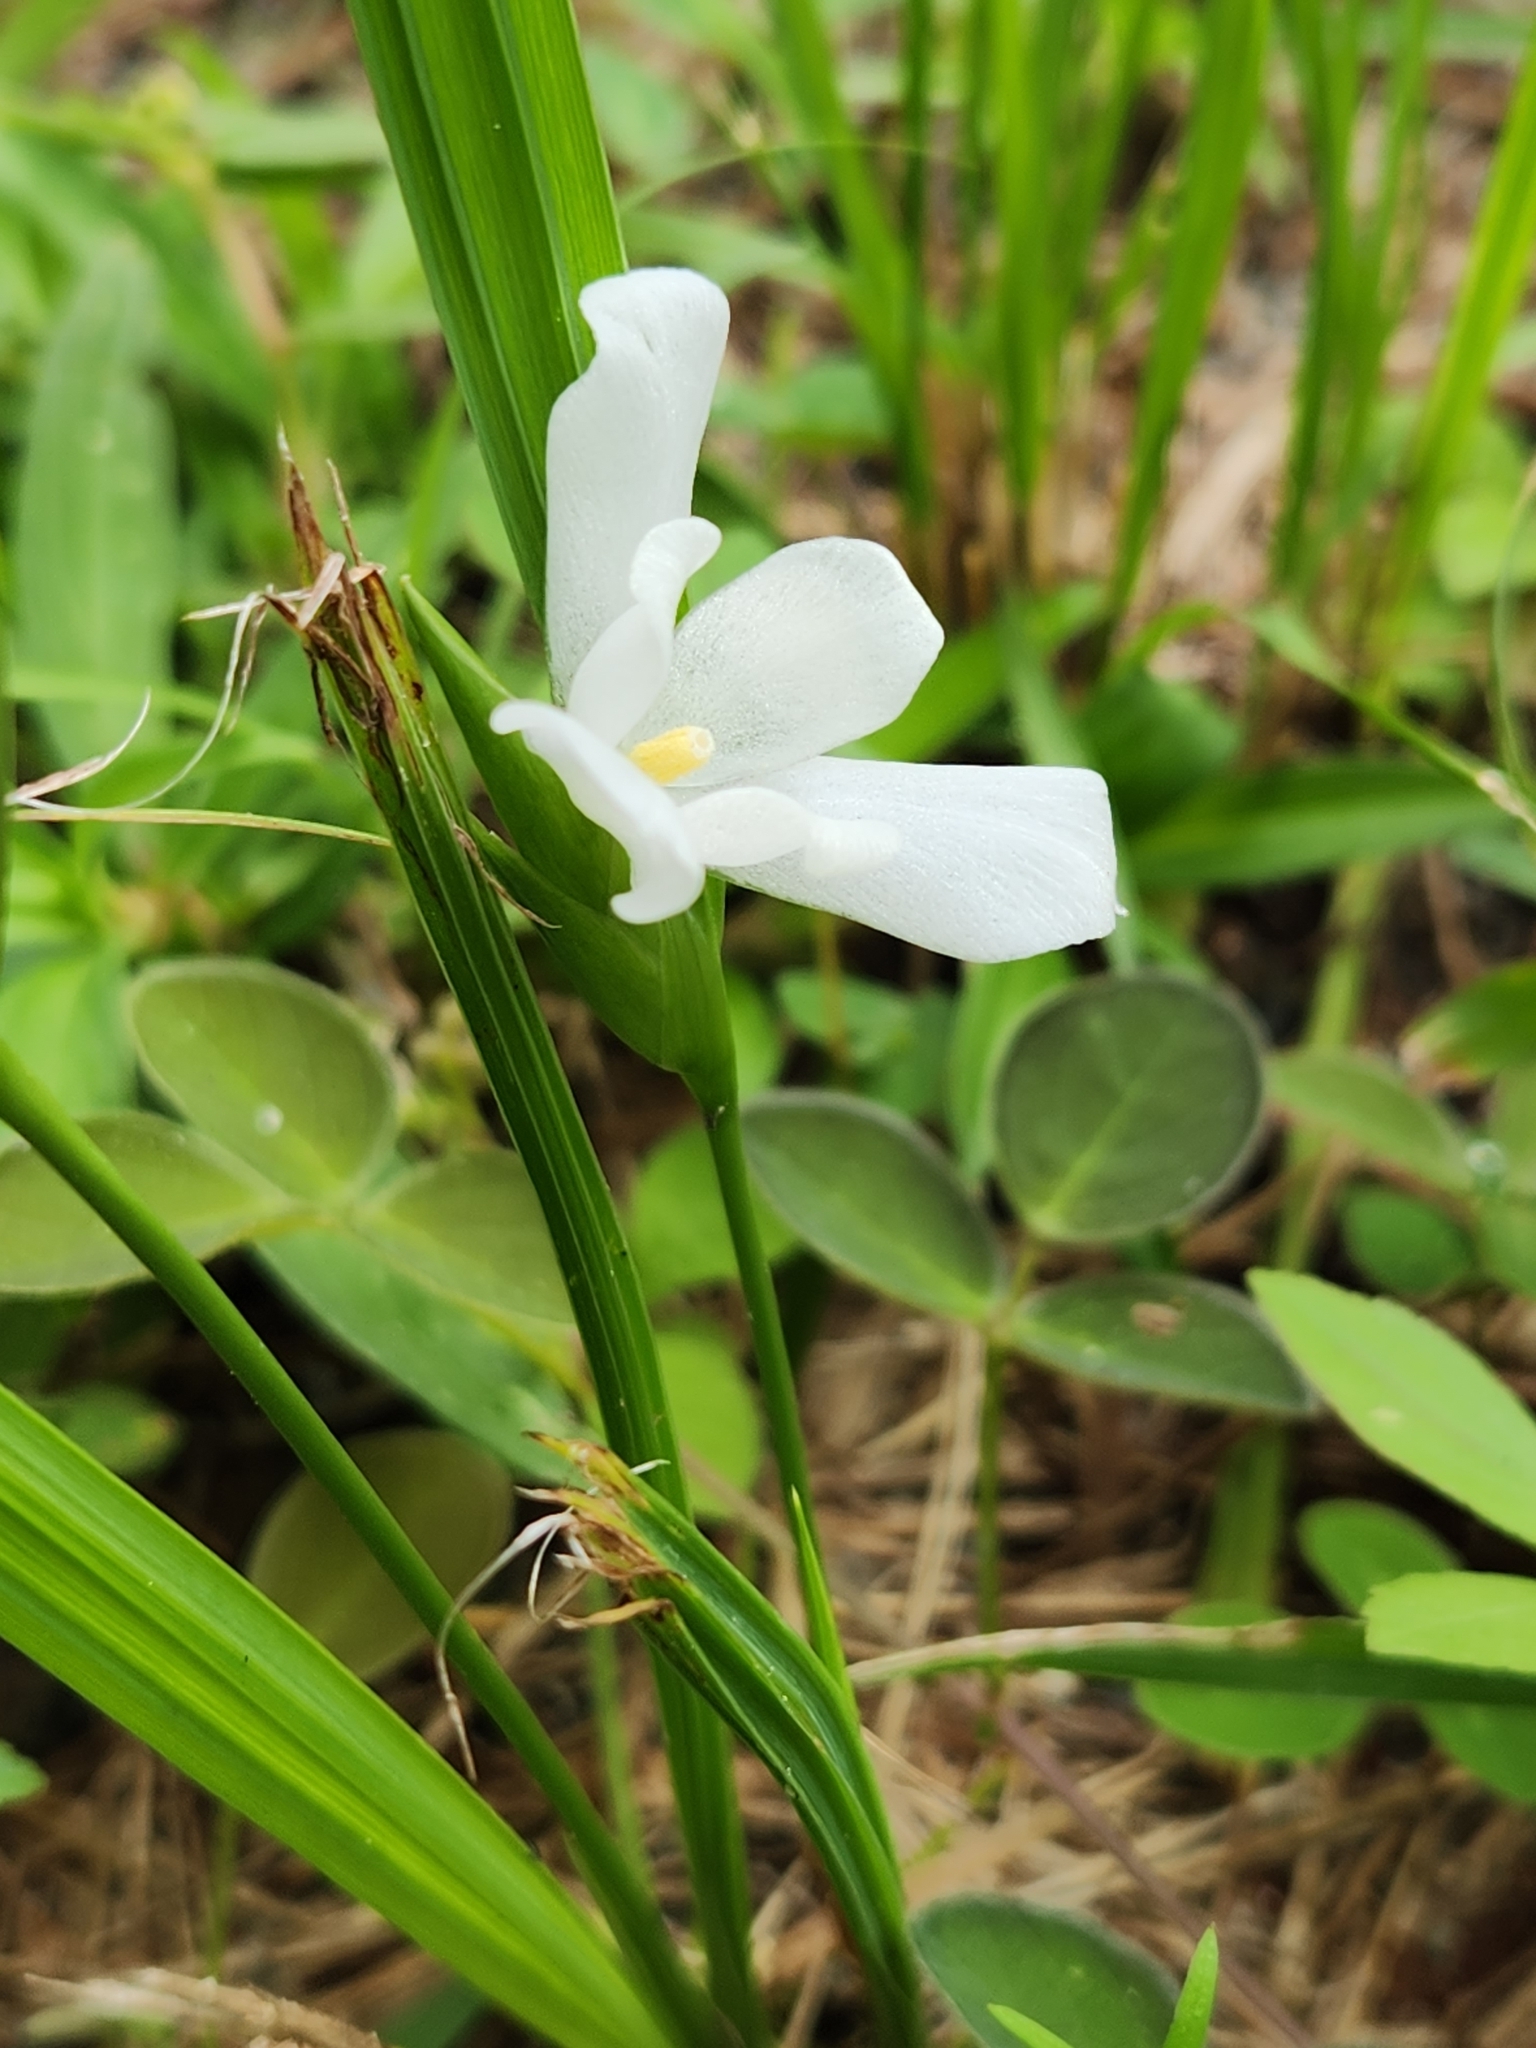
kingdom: Plantae
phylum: Tracheophyta
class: Liliopsida
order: Asparagales
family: Iridaceae
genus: Cipura
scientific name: Cipura campanulata
